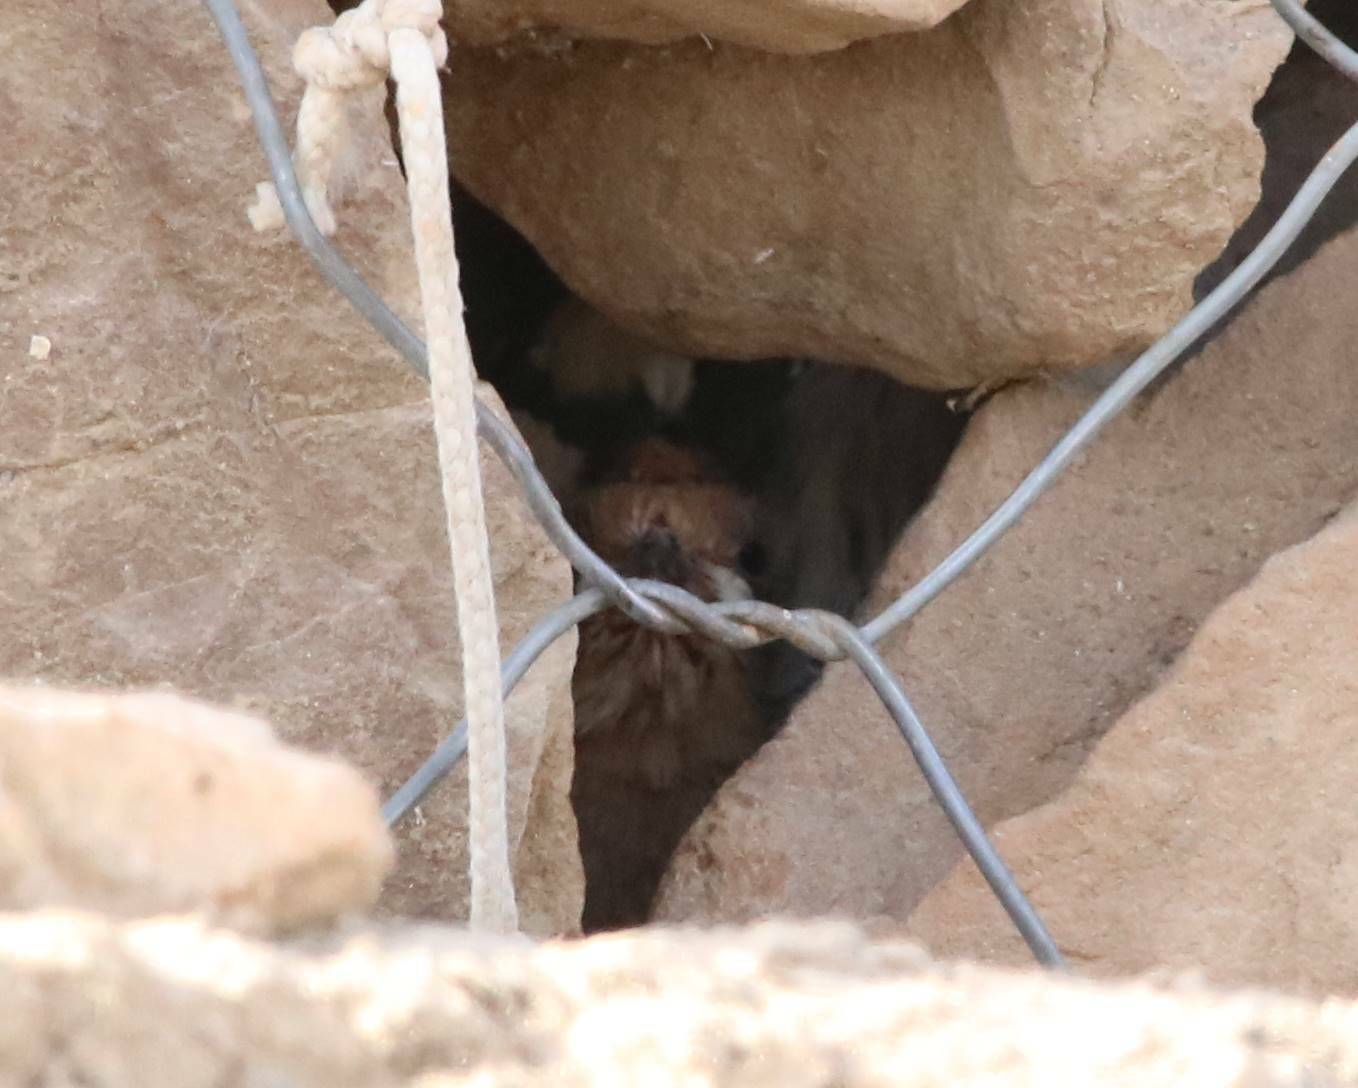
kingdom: Animalia
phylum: Chordata
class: Aves
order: Bucerotiformes
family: Upupidae
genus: Upupa
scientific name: Upupa epops
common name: Eurasian hoopoe
